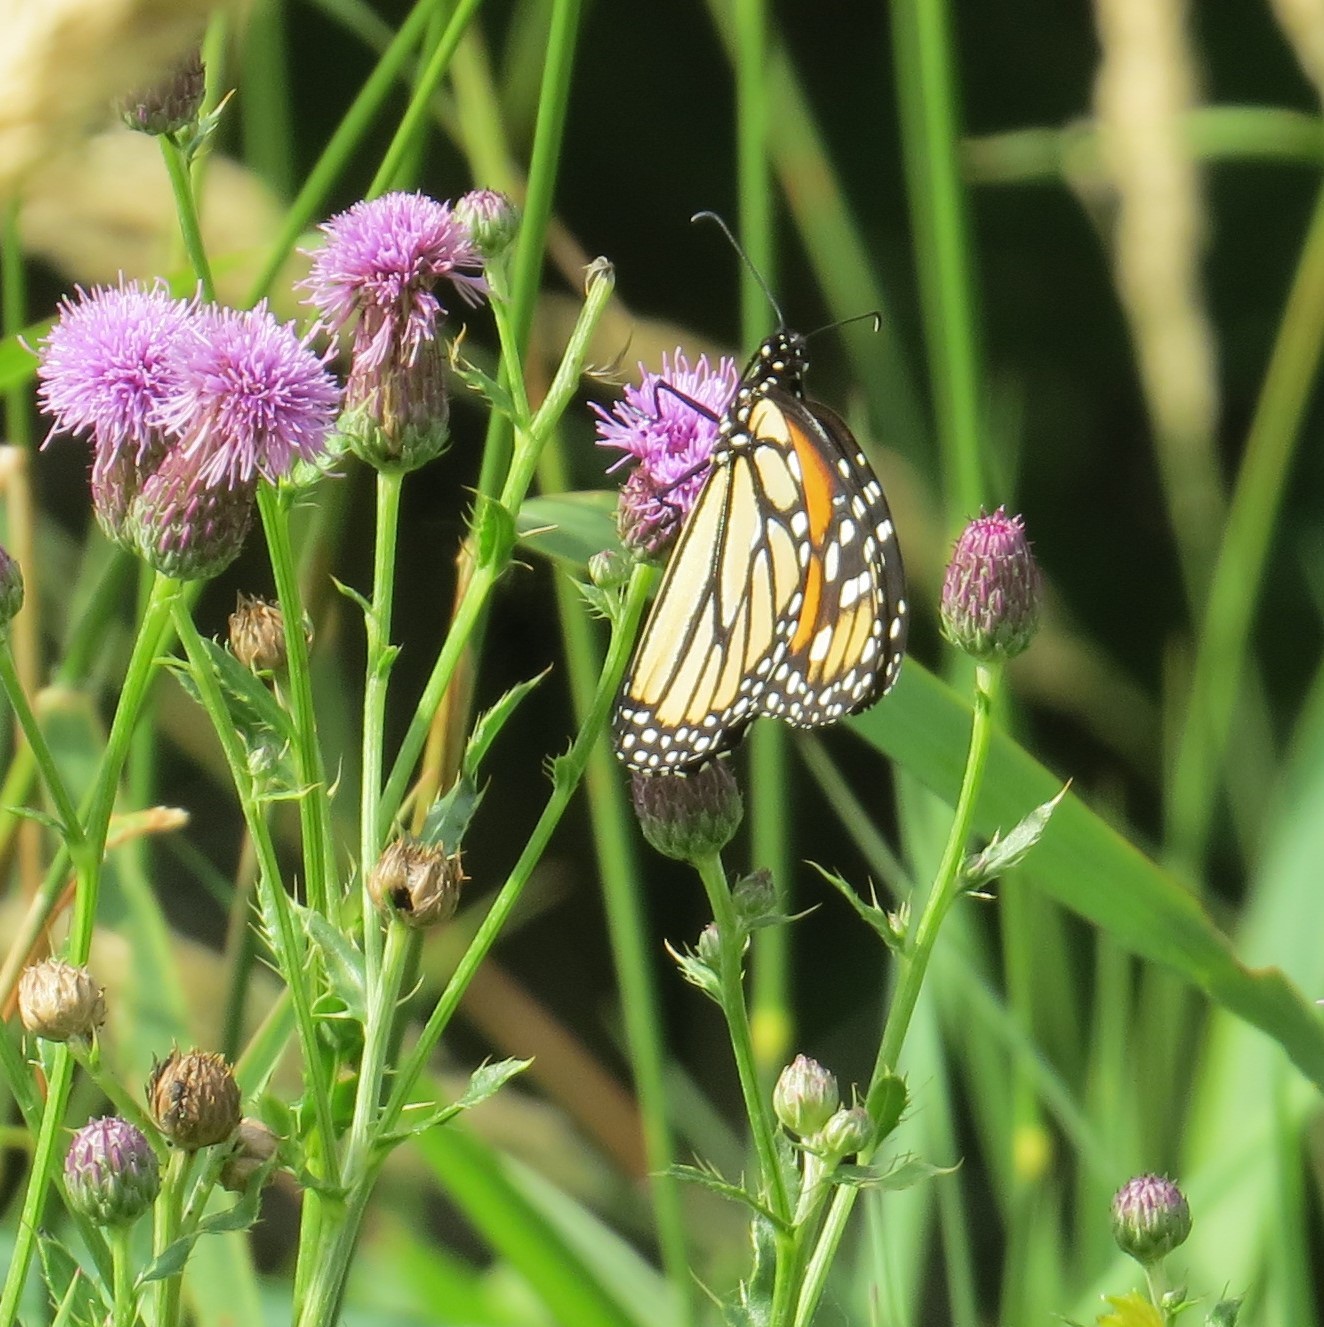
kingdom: Animalia
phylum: Arthropoda
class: Insecta
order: Lepidoptera
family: Nymphalidae
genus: Danaus
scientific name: Danaus plexippus
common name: Monarch
